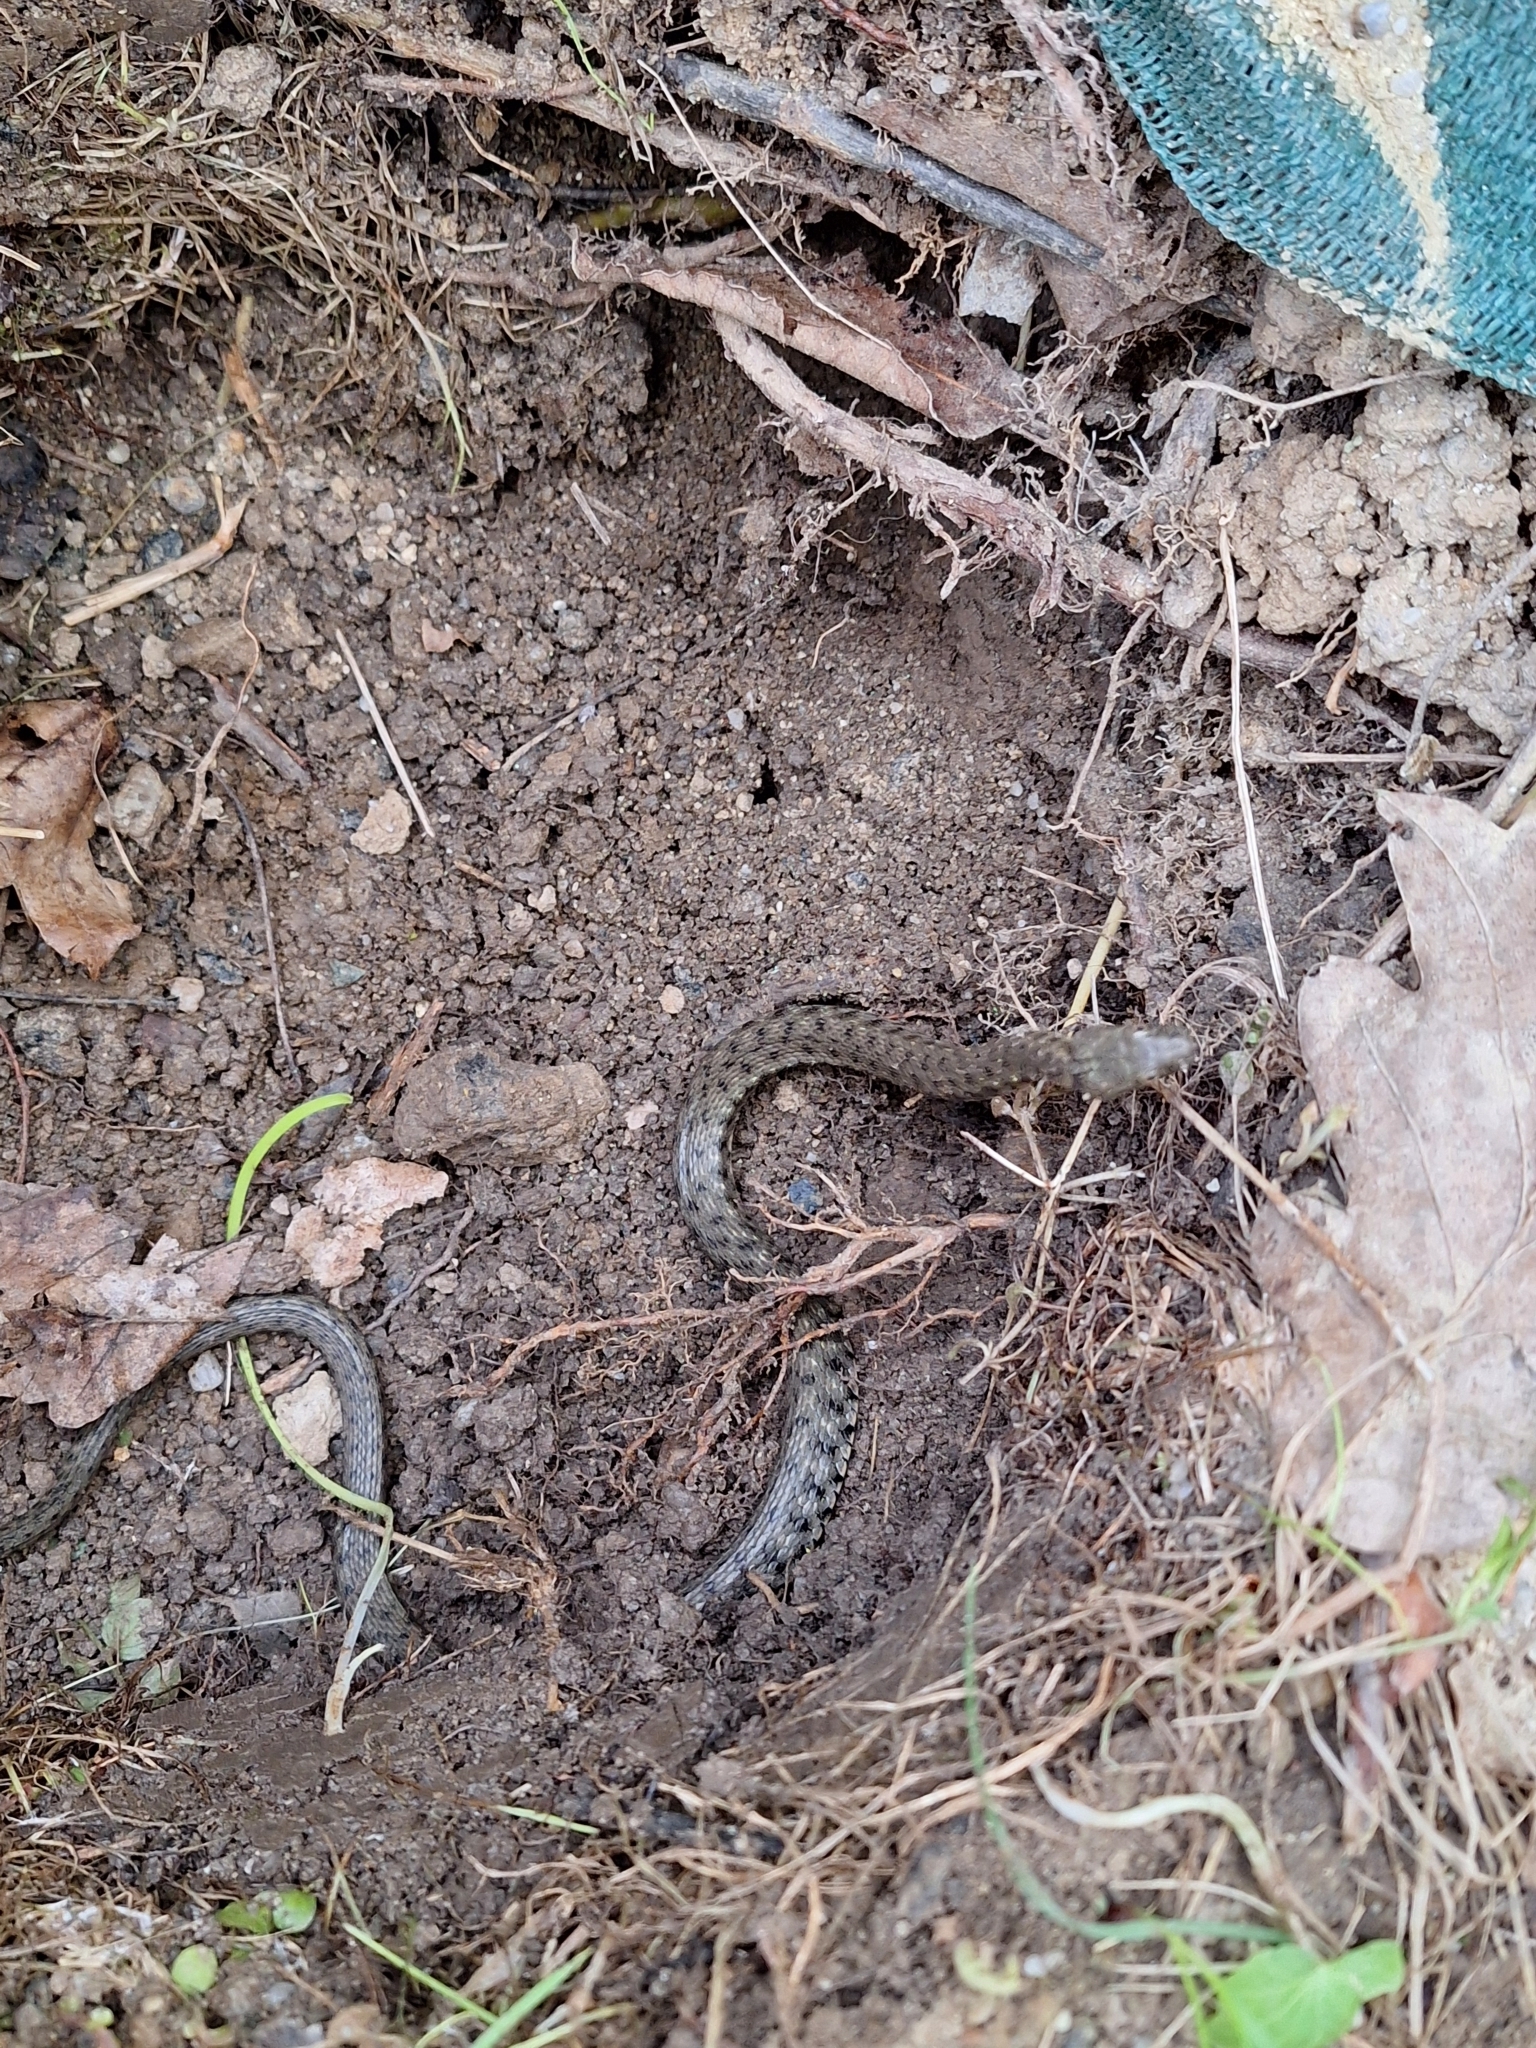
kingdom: Animalia
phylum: Chordata
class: Squamata
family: Colubridae
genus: Natrix
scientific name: Natrix tessellata
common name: Dice snake
